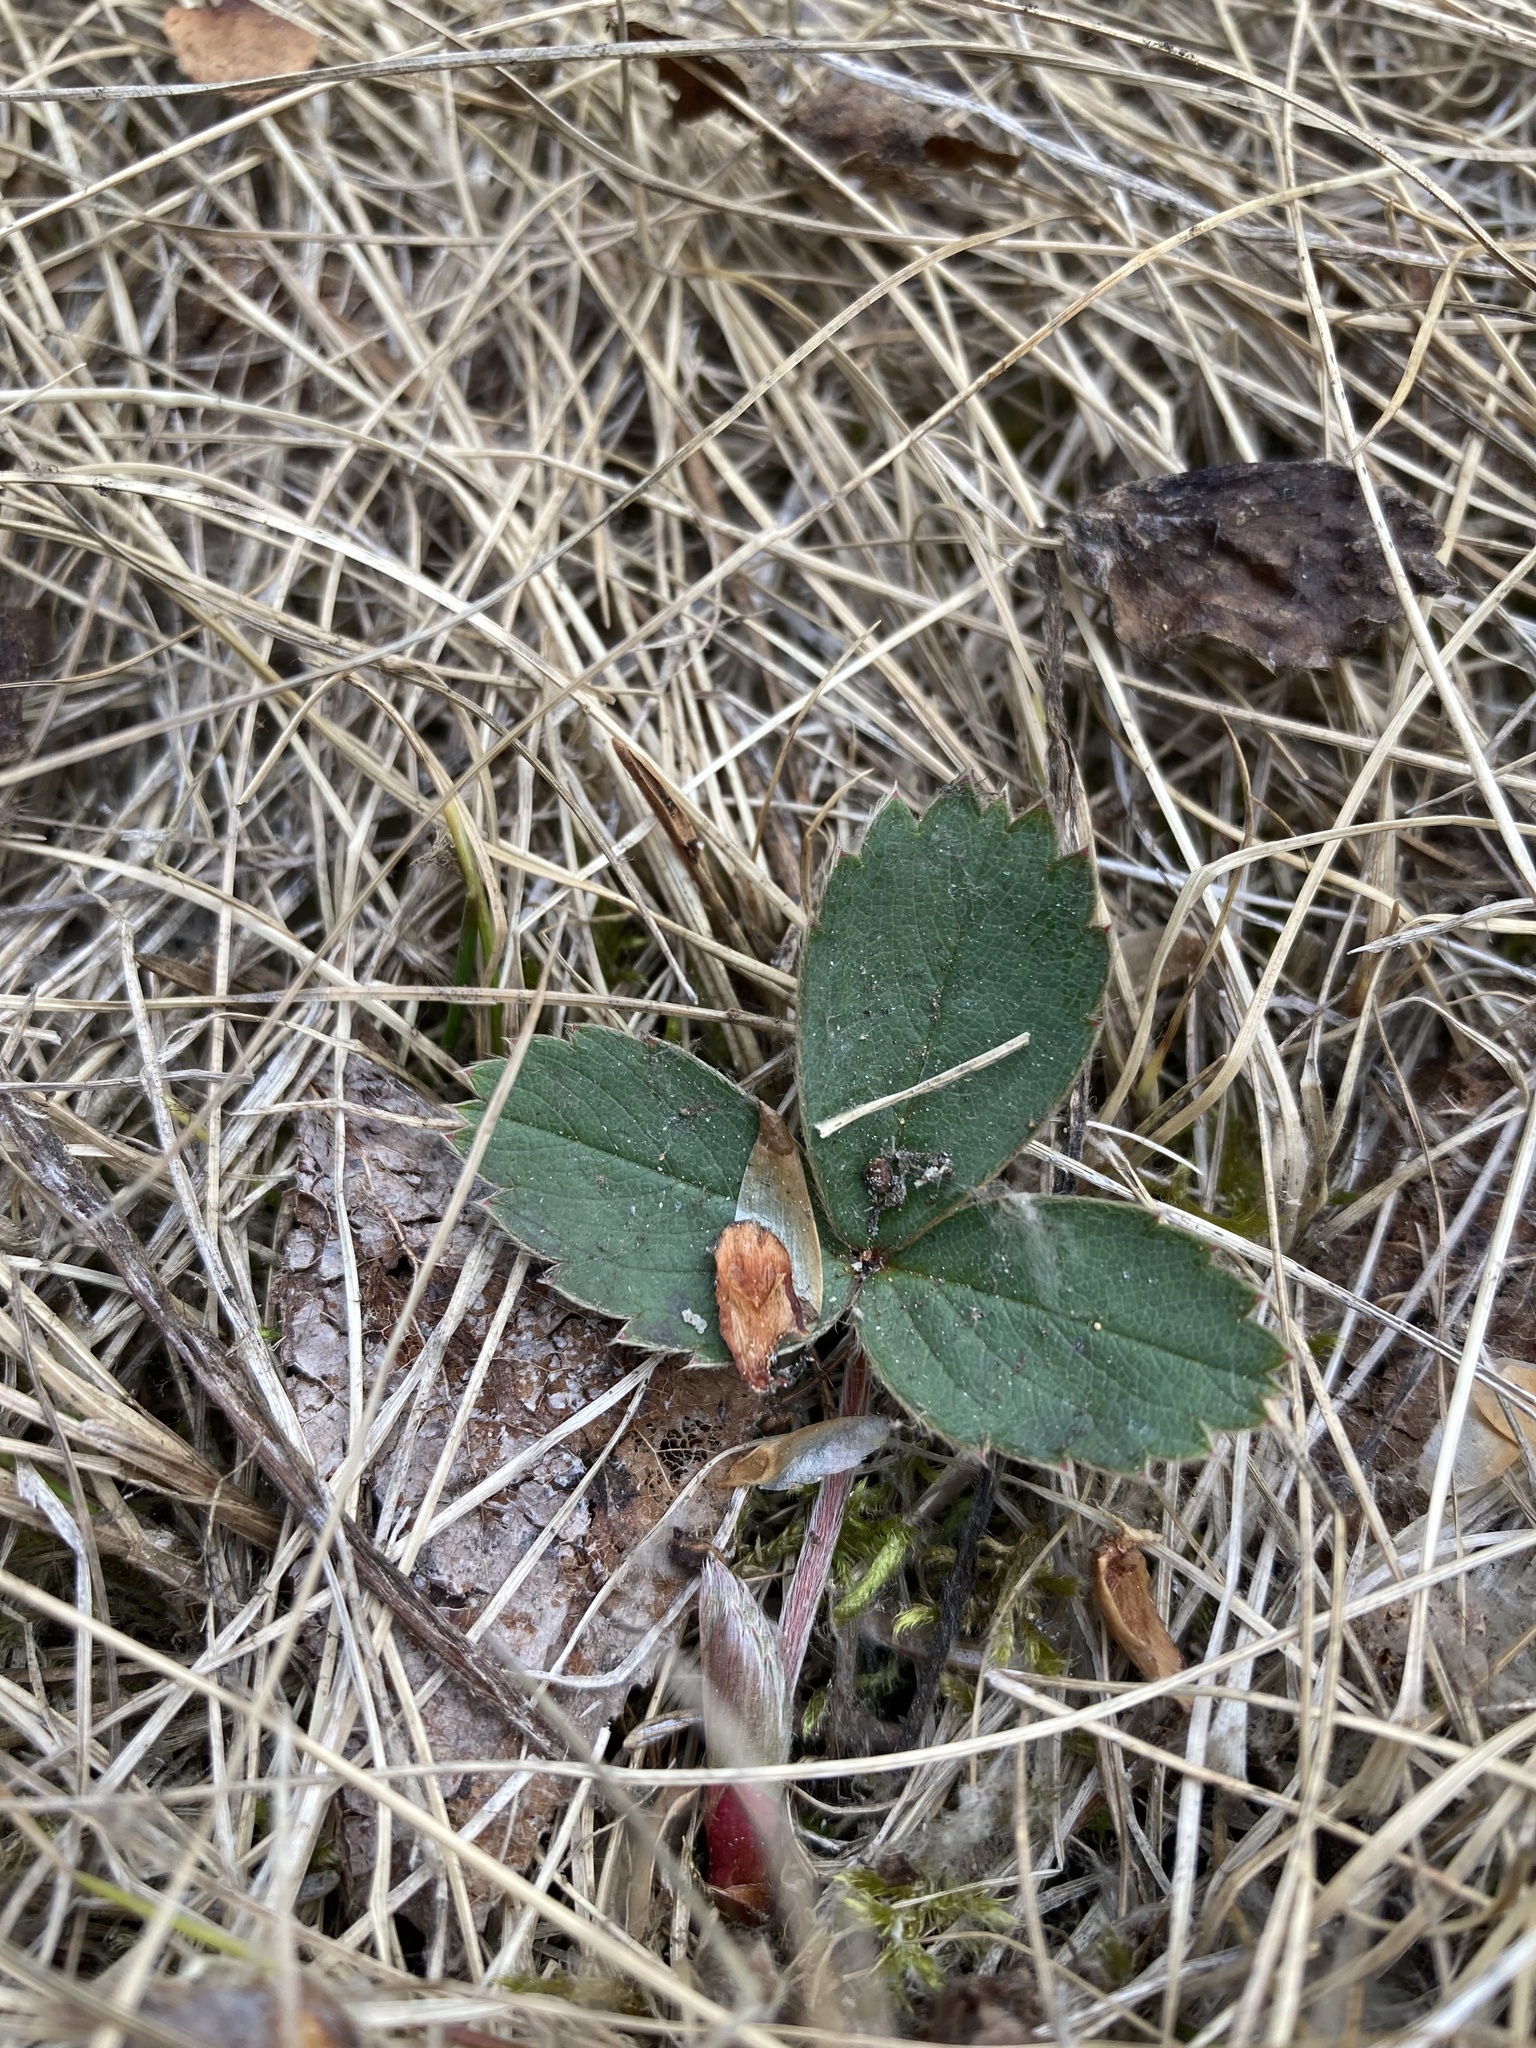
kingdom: Plantae
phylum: Tracheophyta
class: Magnoliopsida
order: Rosales
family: Rosaceae
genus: Fragaria
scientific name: Fragaria virginiana
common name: Thickleaved wild strawberry
